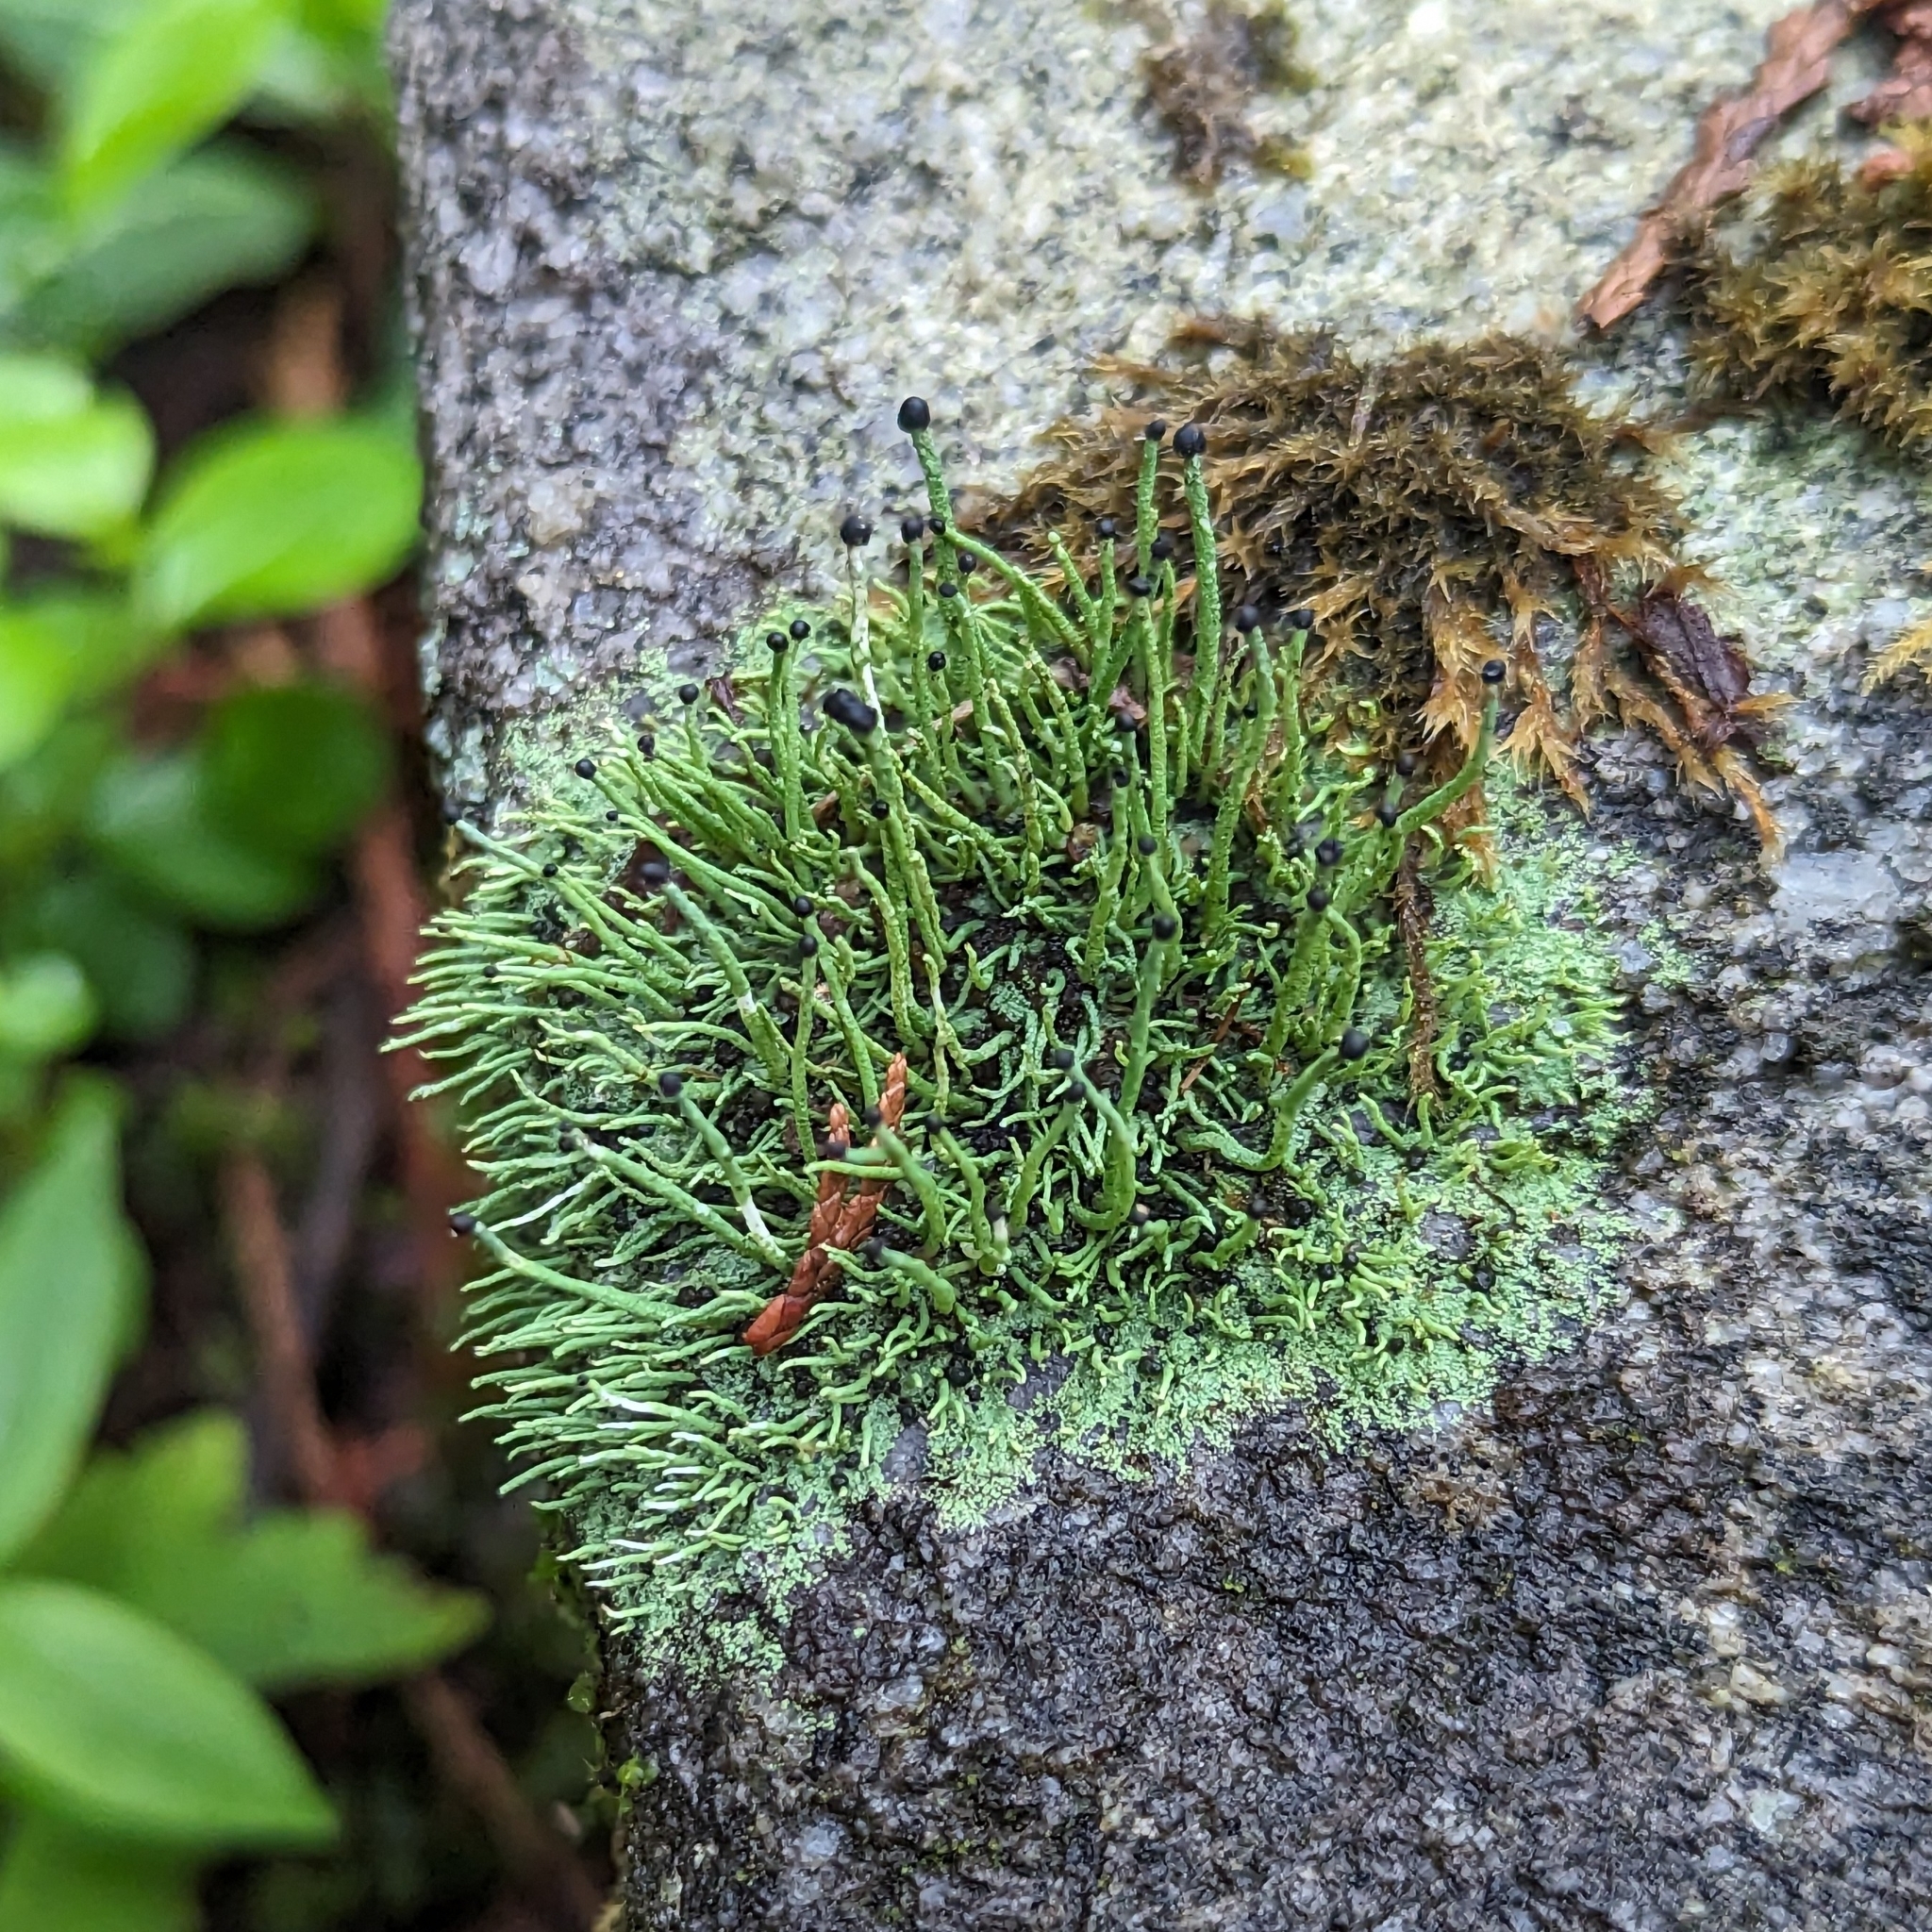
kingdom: Fungi
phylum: Ascomycota
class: Lecanoromycetes
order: Lecanorales
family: Cladoniaceae
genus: Pilophorus
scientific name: Pilophorus acicularis
